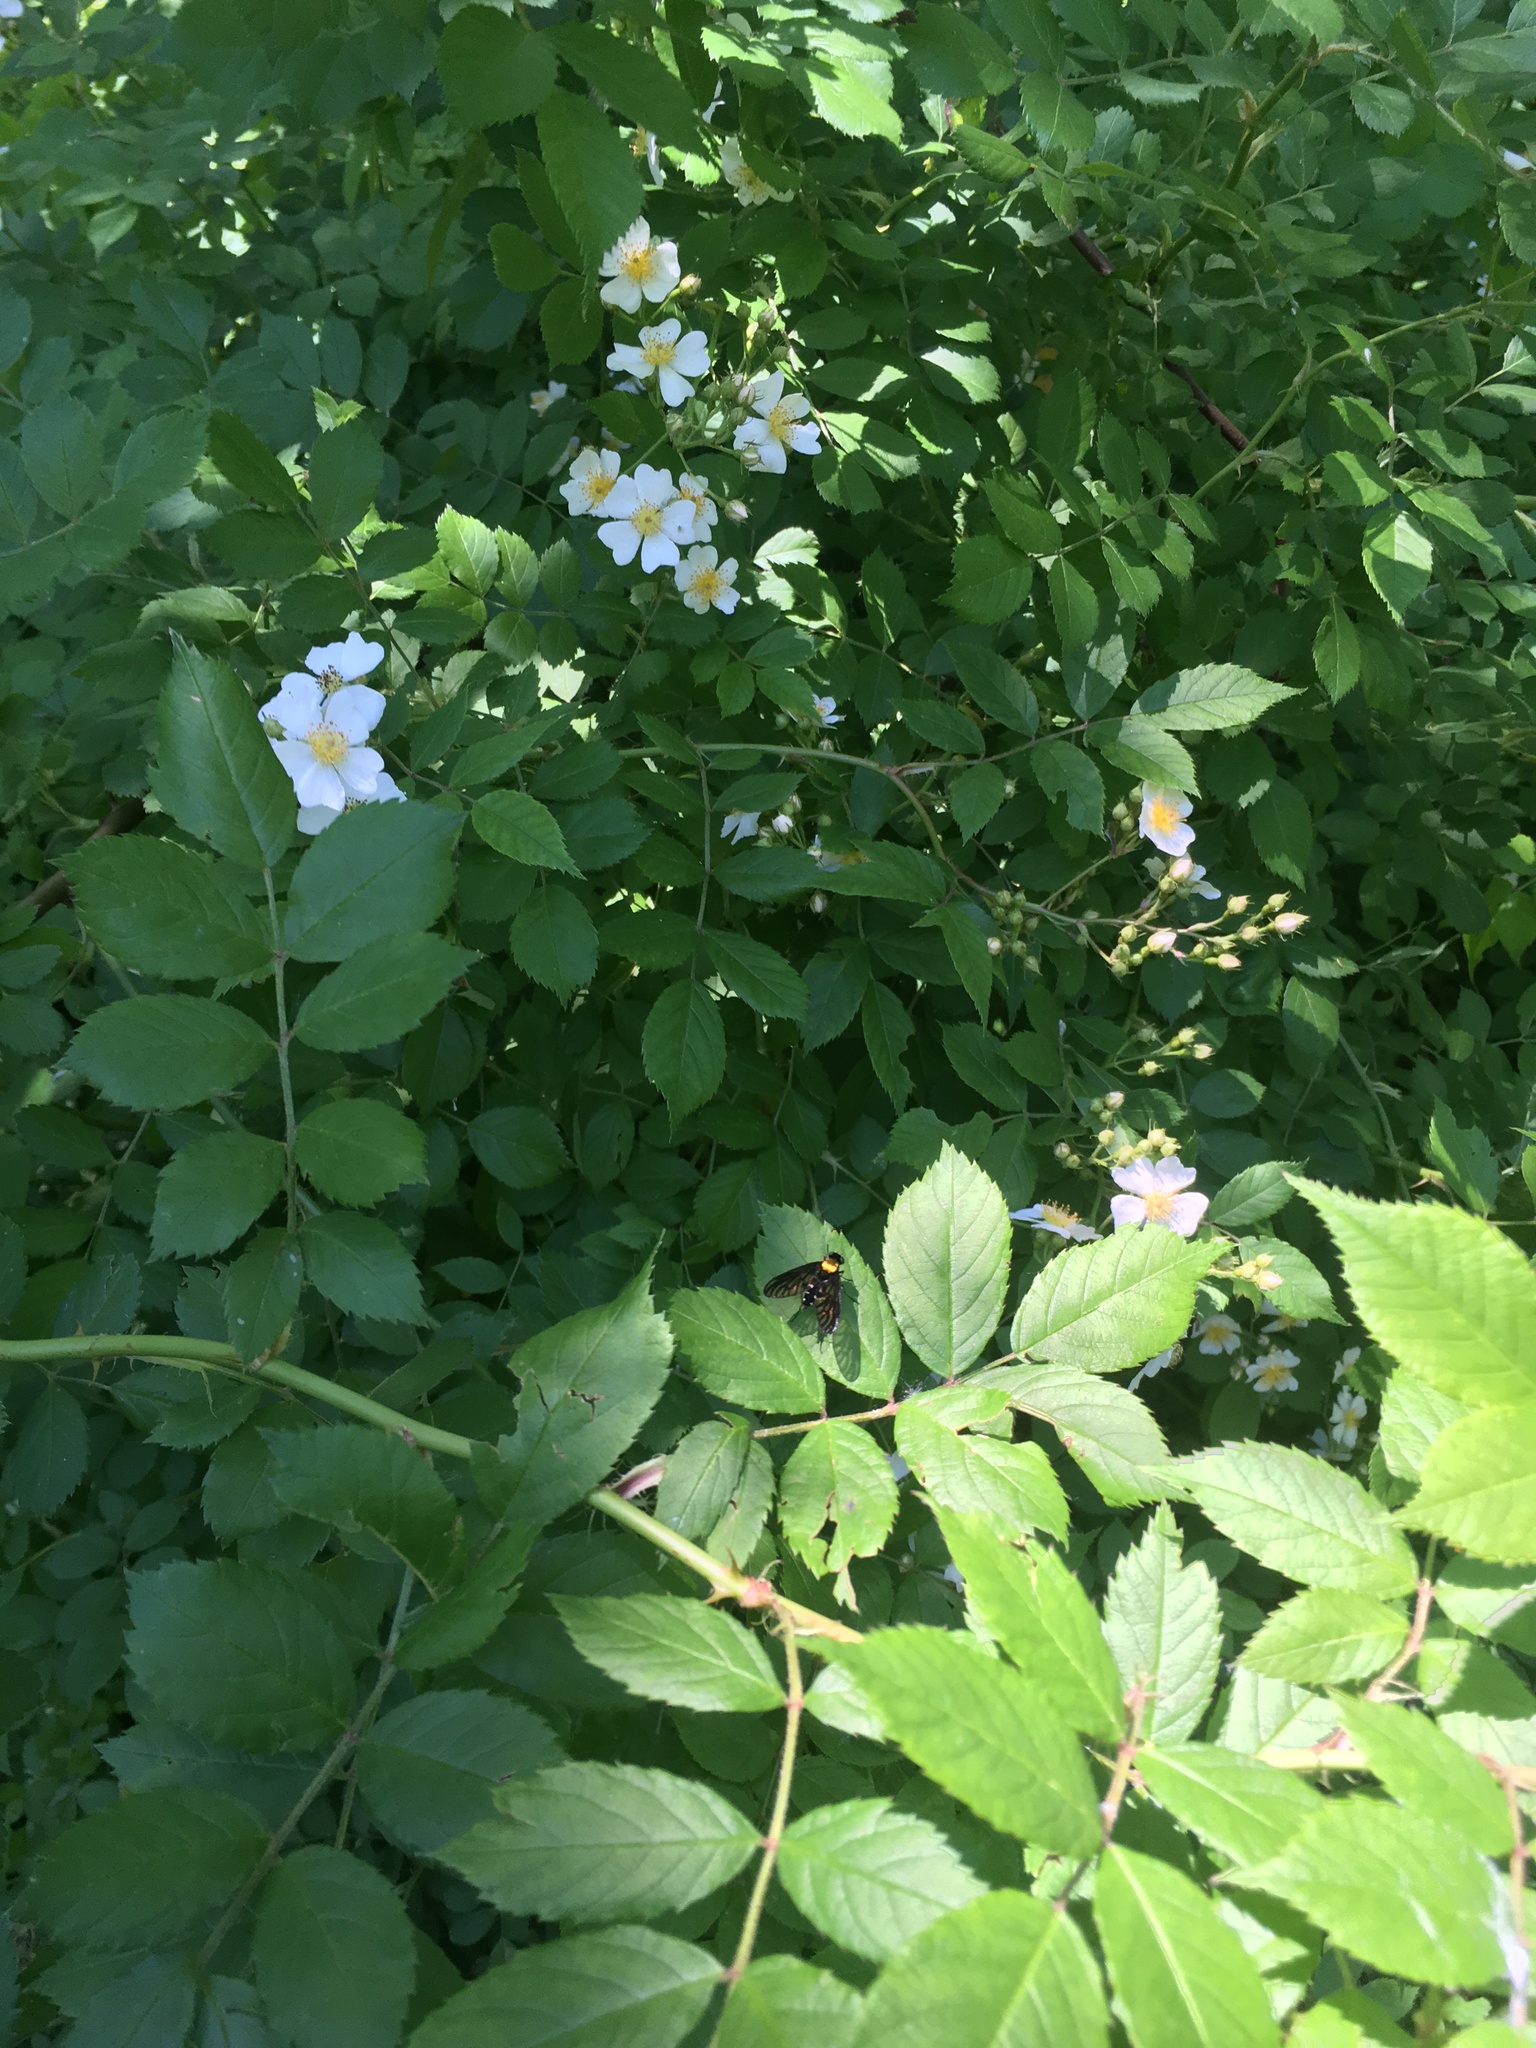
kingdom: Animalia
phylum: Arthropoda
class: Insecta
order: Diptera
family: Rhagionidae
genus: Chrysopilus
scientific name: Chrysopilus thoracicus
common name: Golden-backed snipe fly
